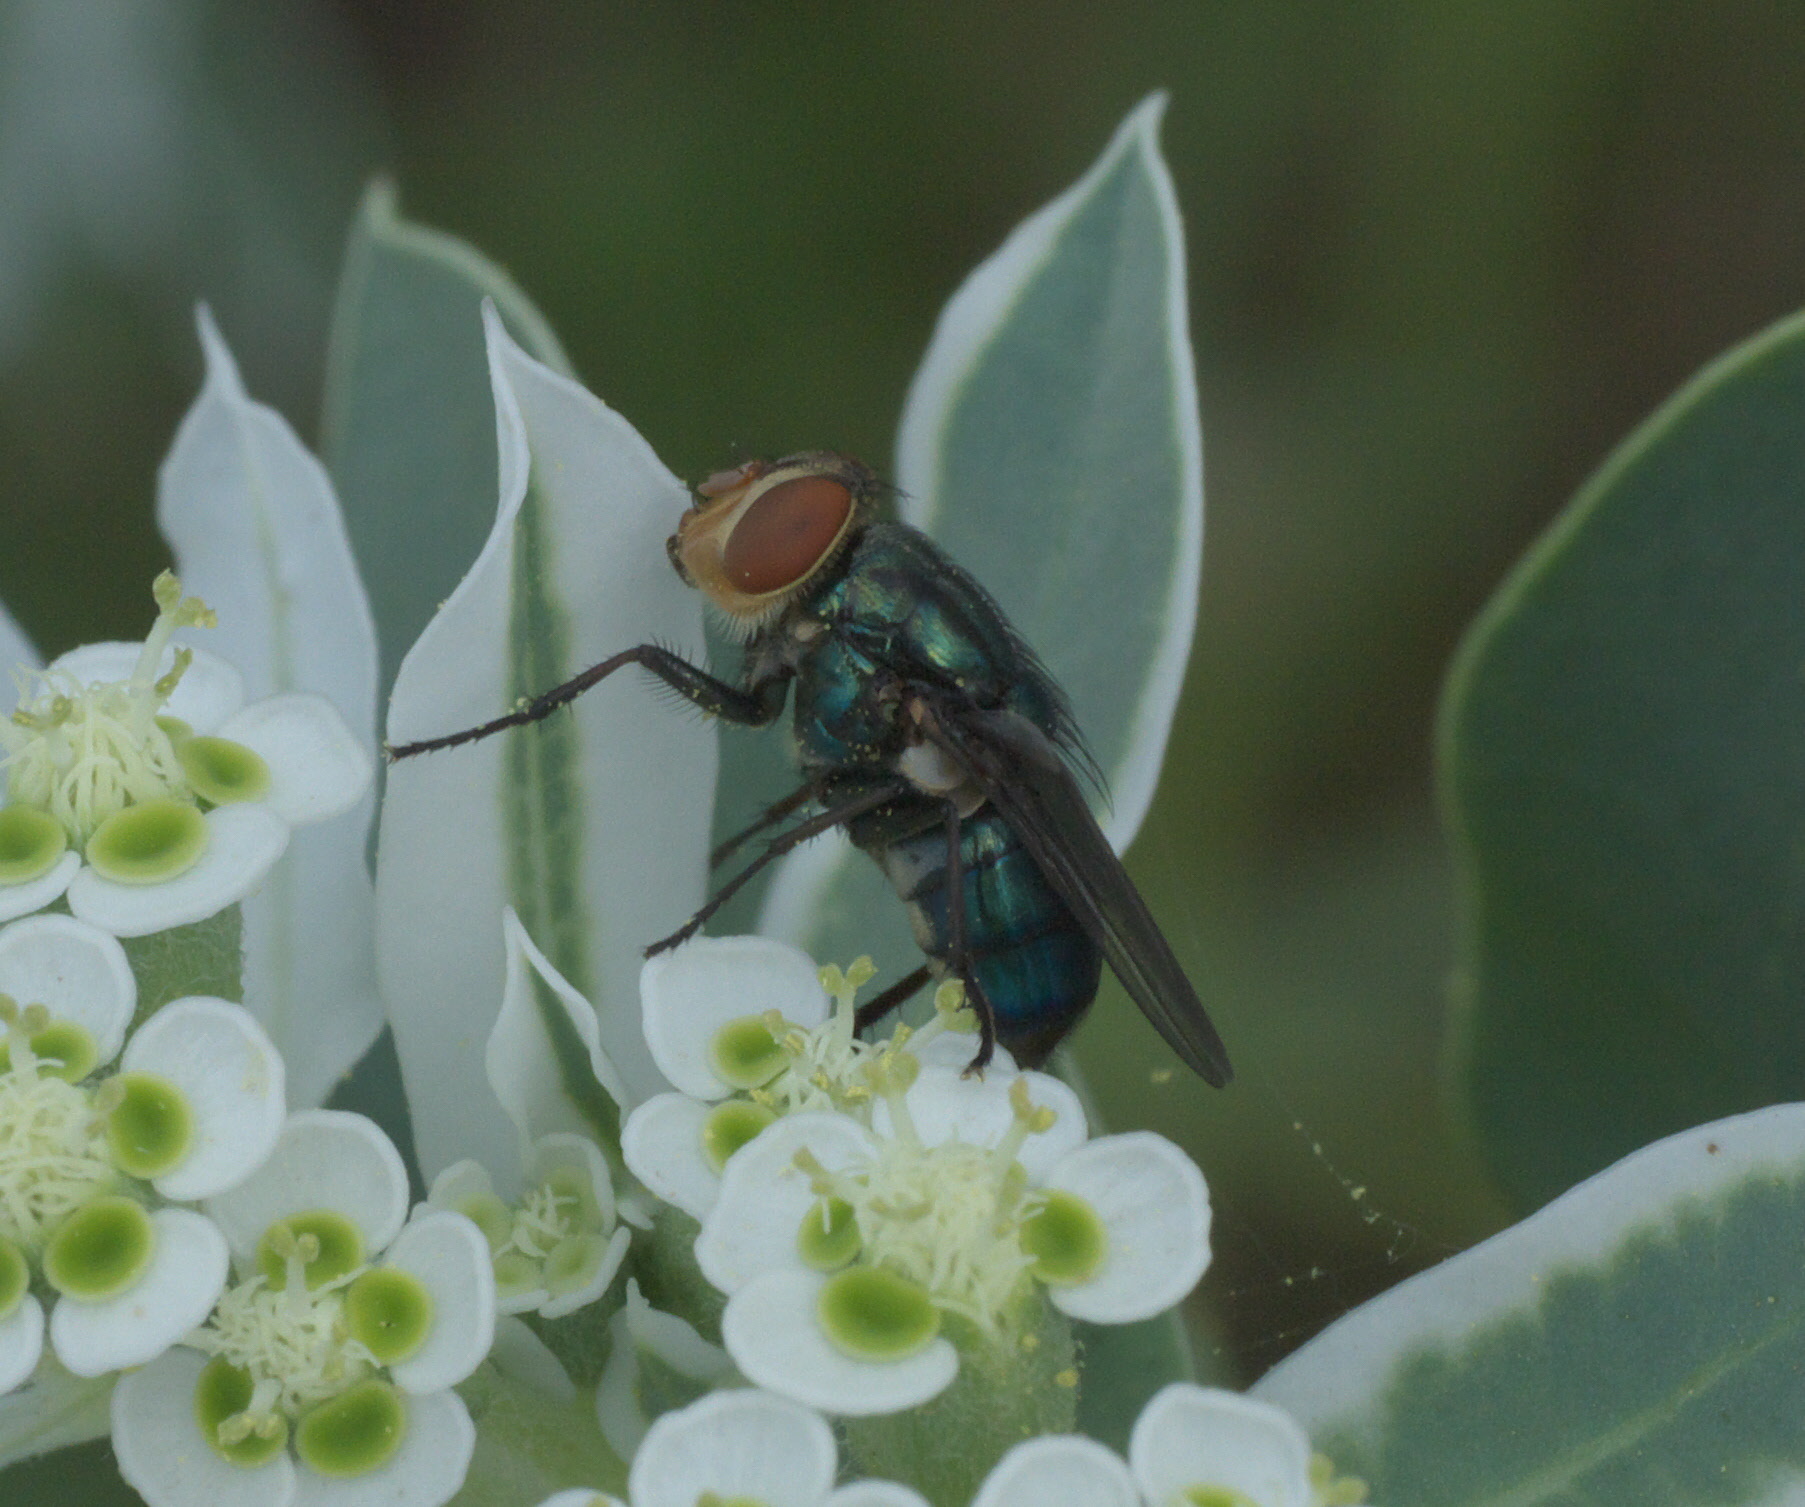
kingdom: Animalia
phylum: Arthropoda
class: Insecta
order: Diptera
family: Calliphoridae
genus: Cochliomyia
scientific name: Cochliomyia macellaria
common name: Secondary screwworm
